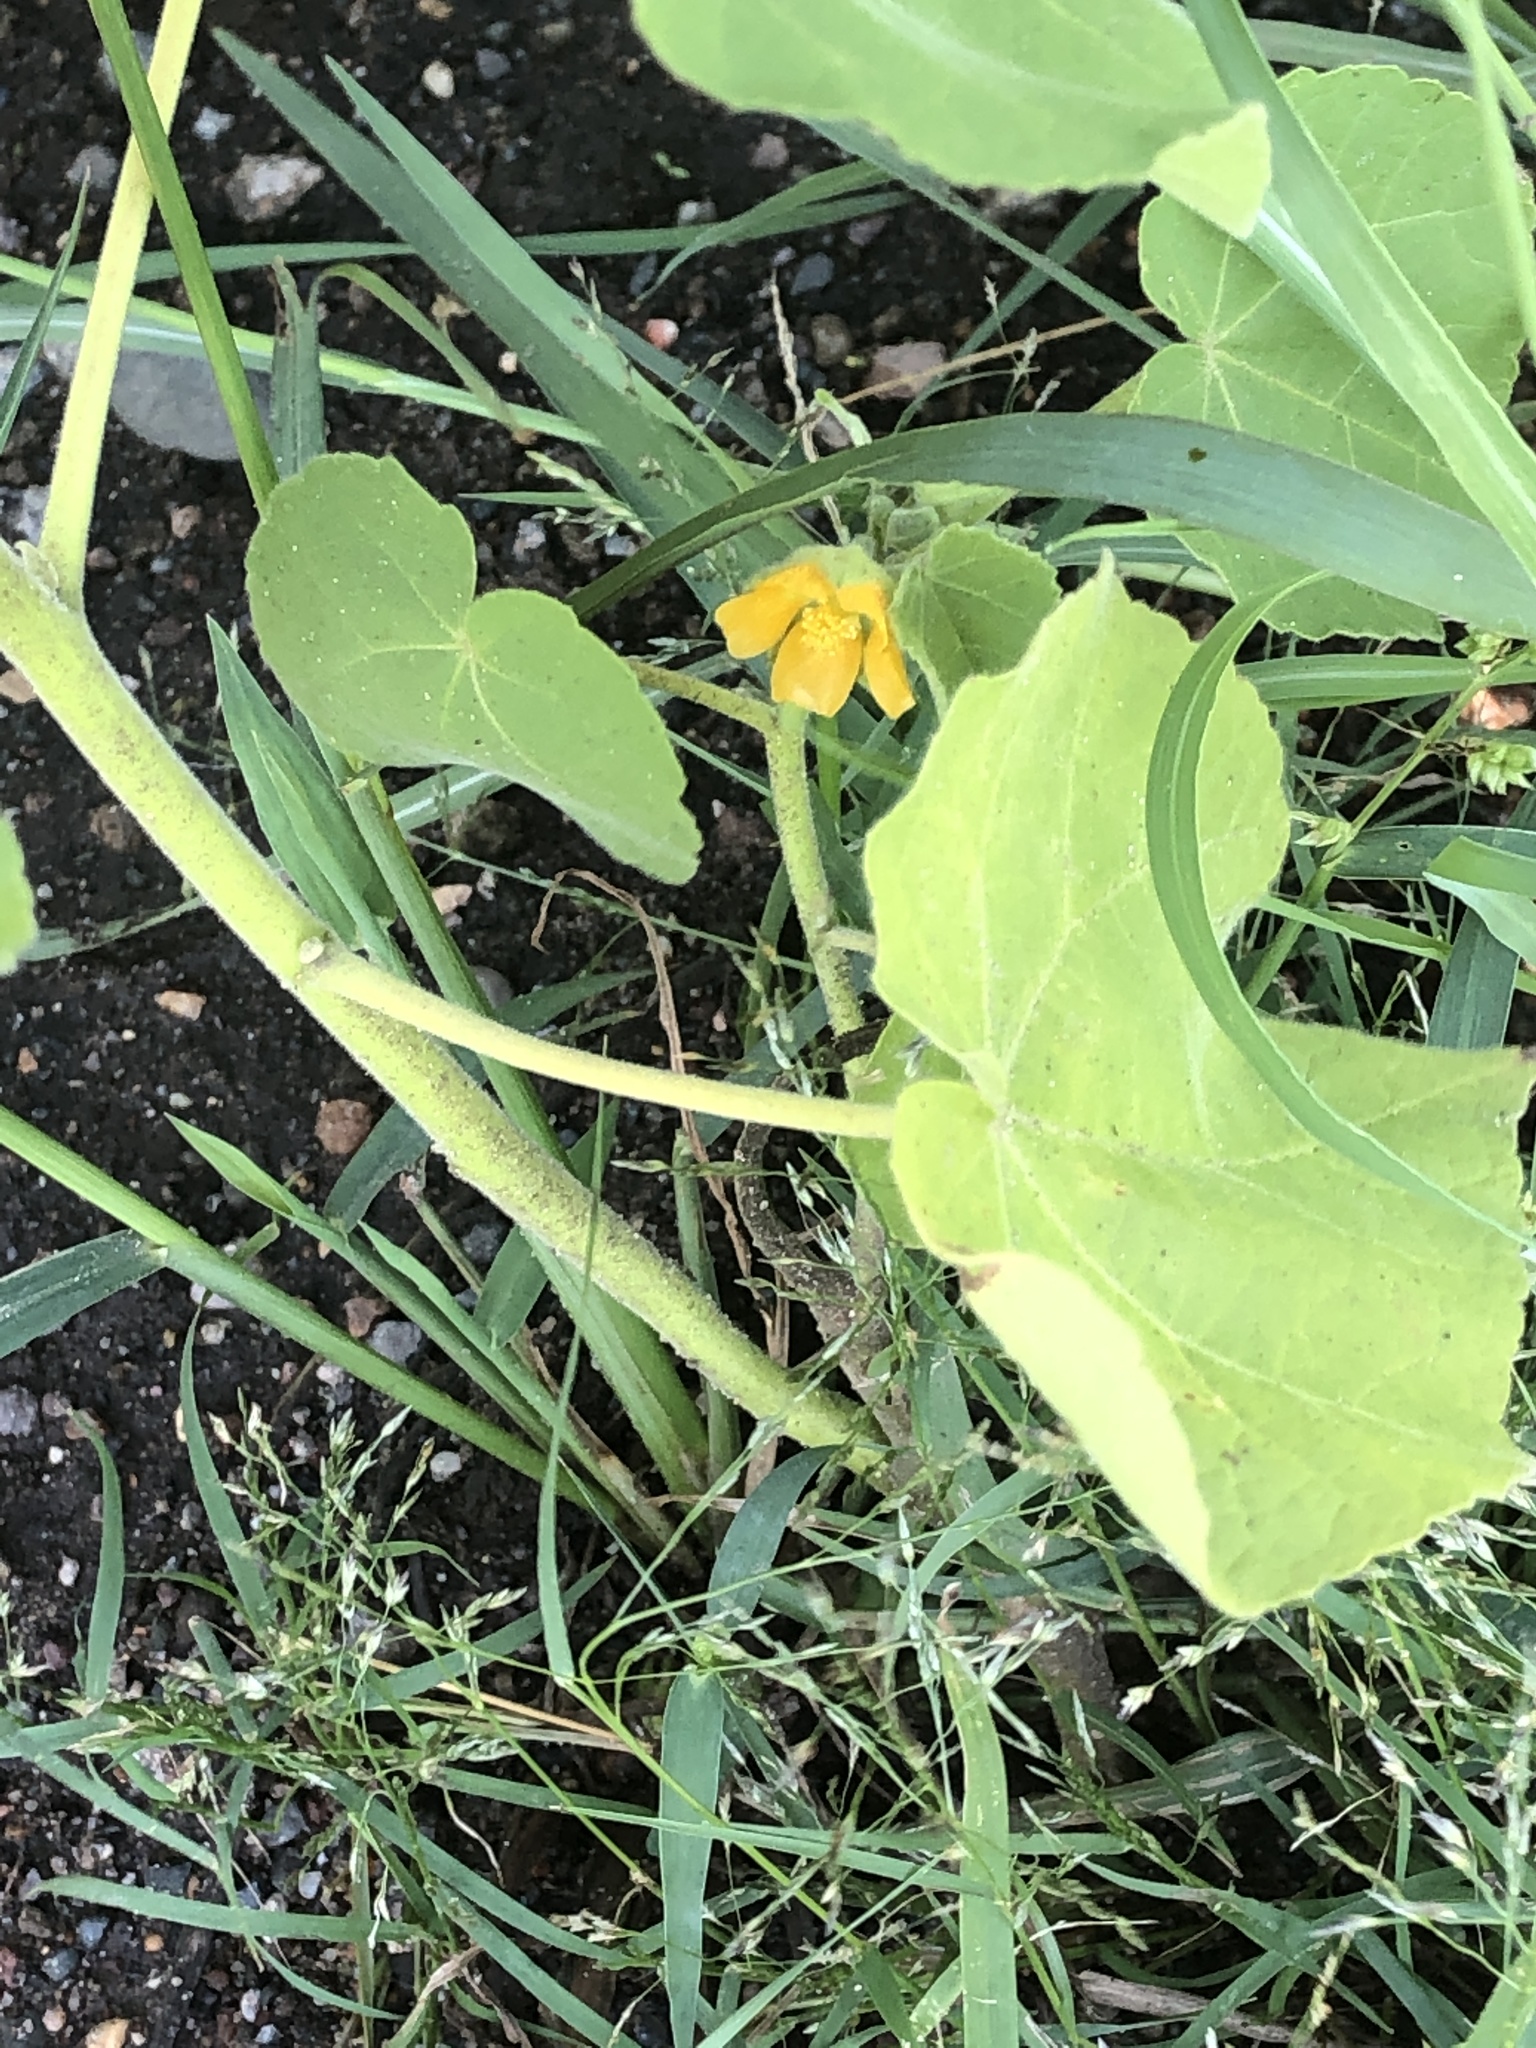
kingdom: Plantae
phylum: Tracheophyta
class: Magnoliopsida
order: Malvales
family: Malvaceae
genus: Abutilon
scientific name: Abutilon theophrasti
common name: Velvetleaf
